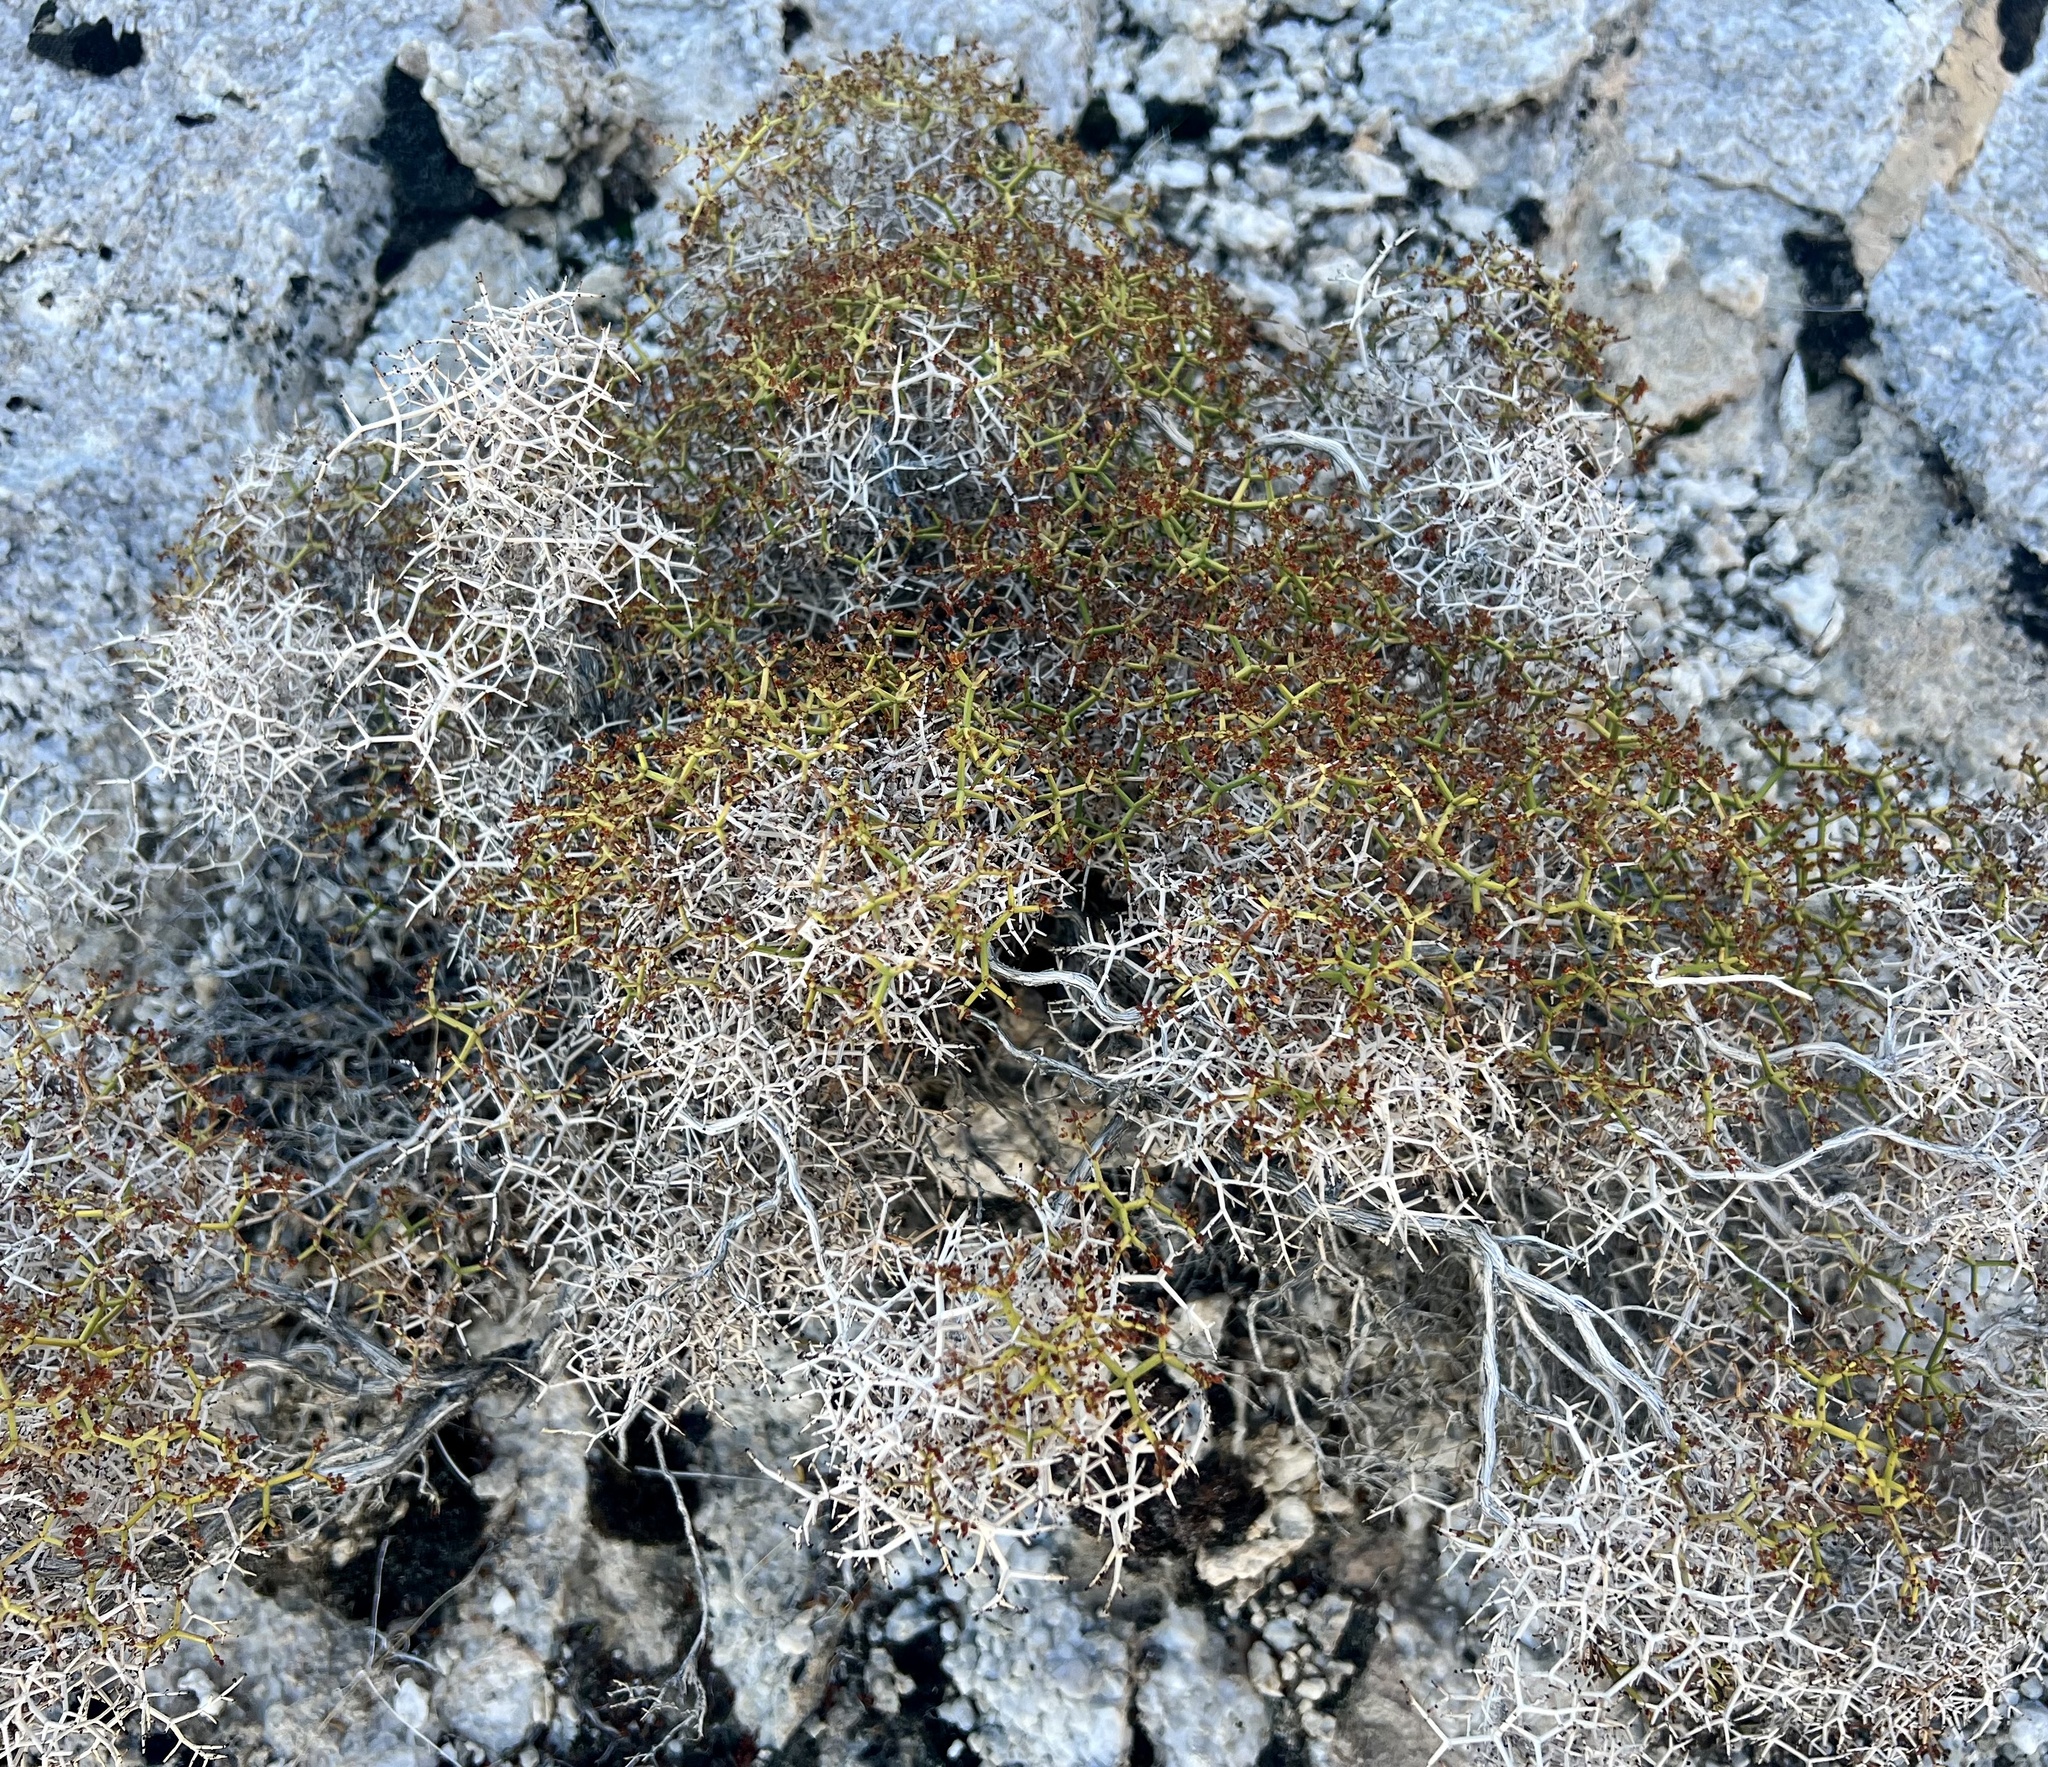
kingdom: Plantae
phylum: Tracheophyta
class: Magnoliopsida
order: Caryophyllales
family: Polygonaceae
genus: Eriogonum
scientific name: Eriogonum heermannii
